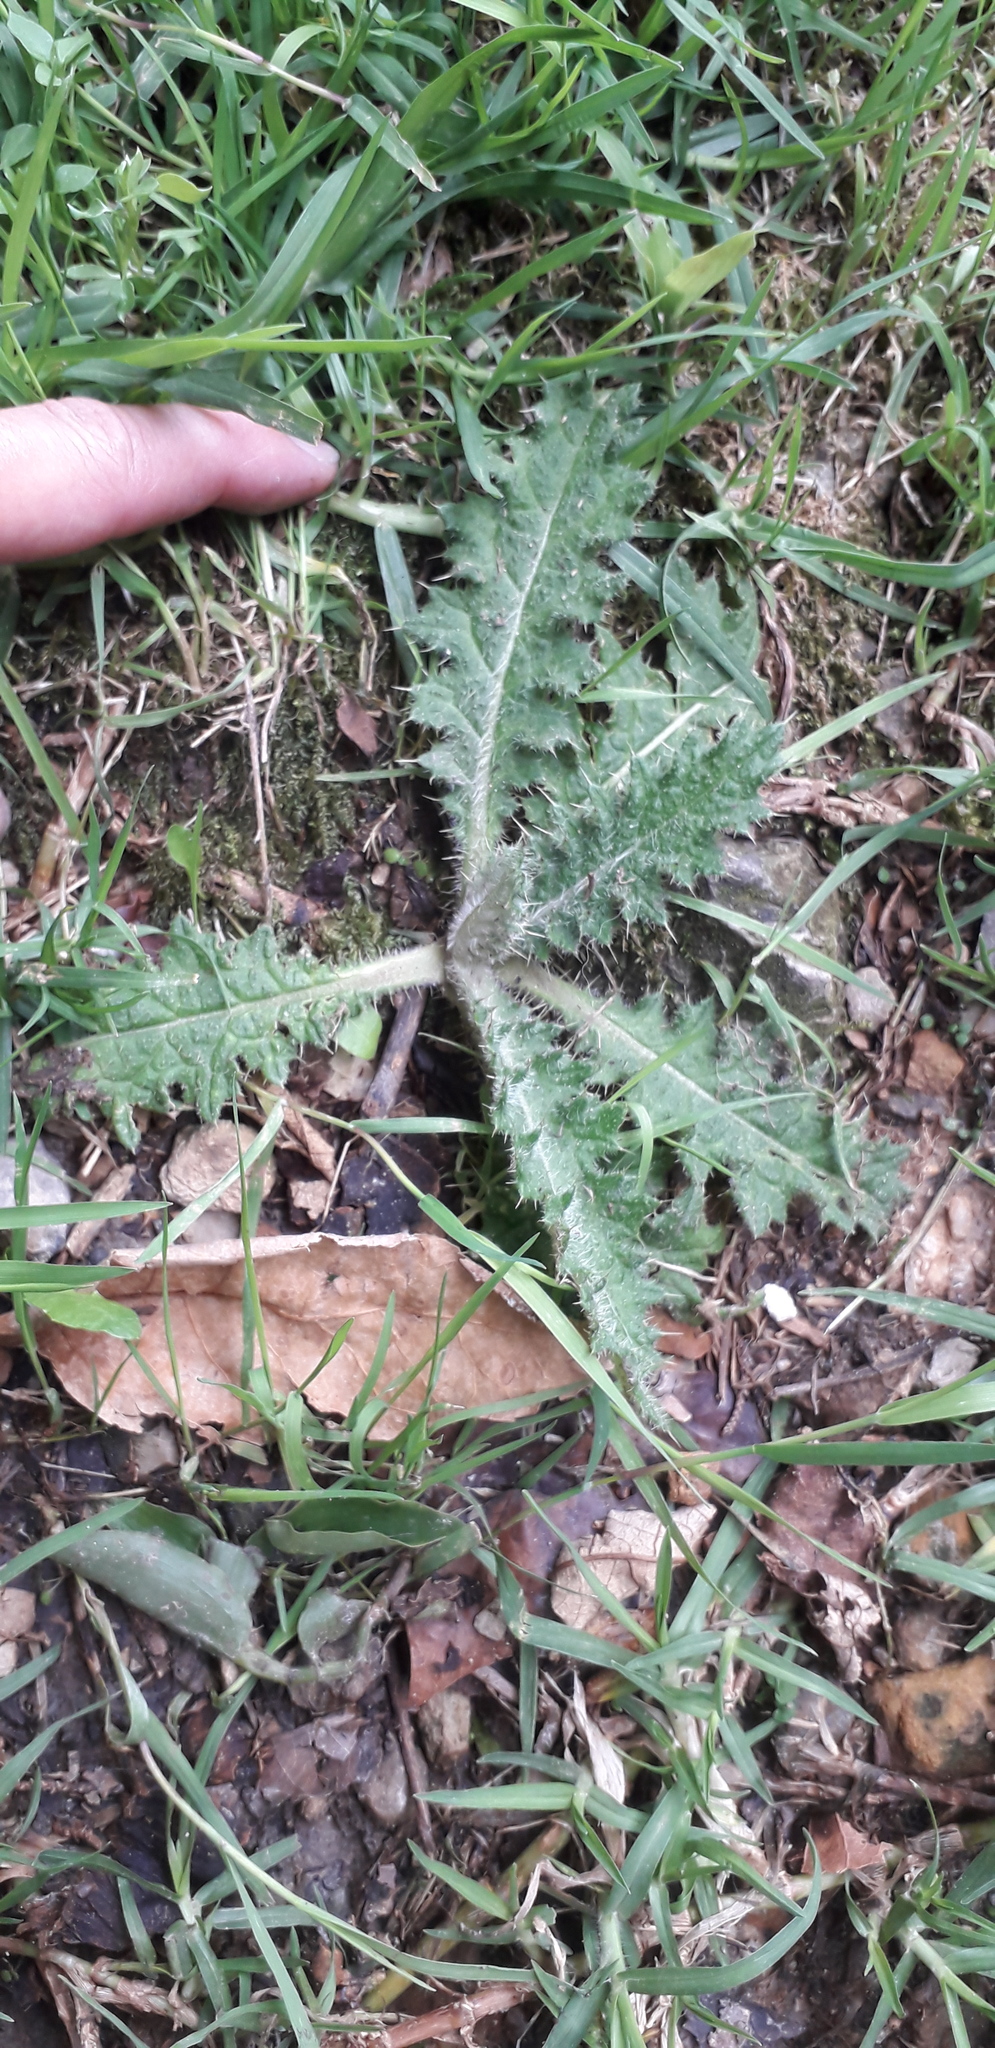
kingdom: Plantae
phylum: Tracheophyta
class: Magnoliopsida
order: Asterales
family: Asteraceae
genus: Sonchus
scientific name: Sonchus asper
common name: Prickly sow-thistle
